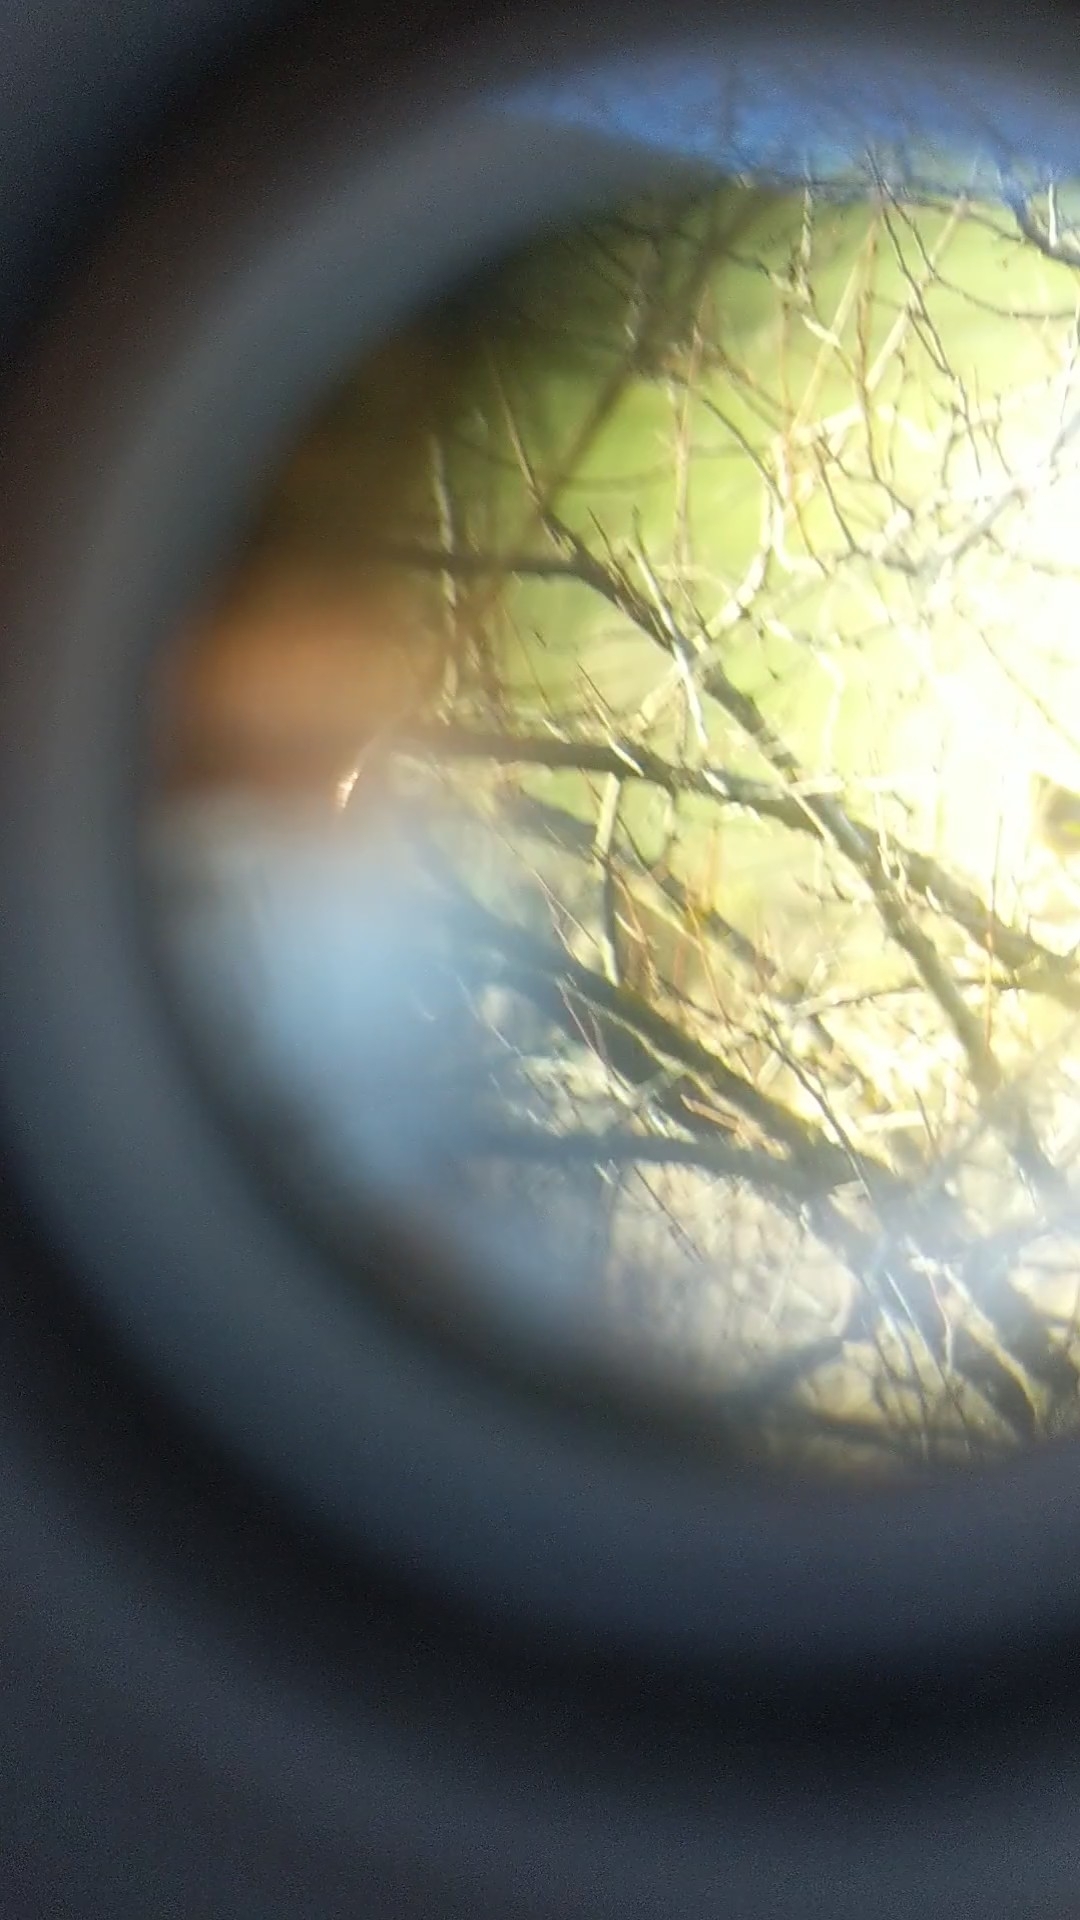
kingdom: Plantae
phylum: Tracheophyta
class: Liliopsida
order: Poales
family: Poaceae
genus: Chloris
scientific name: Chloris chloris
